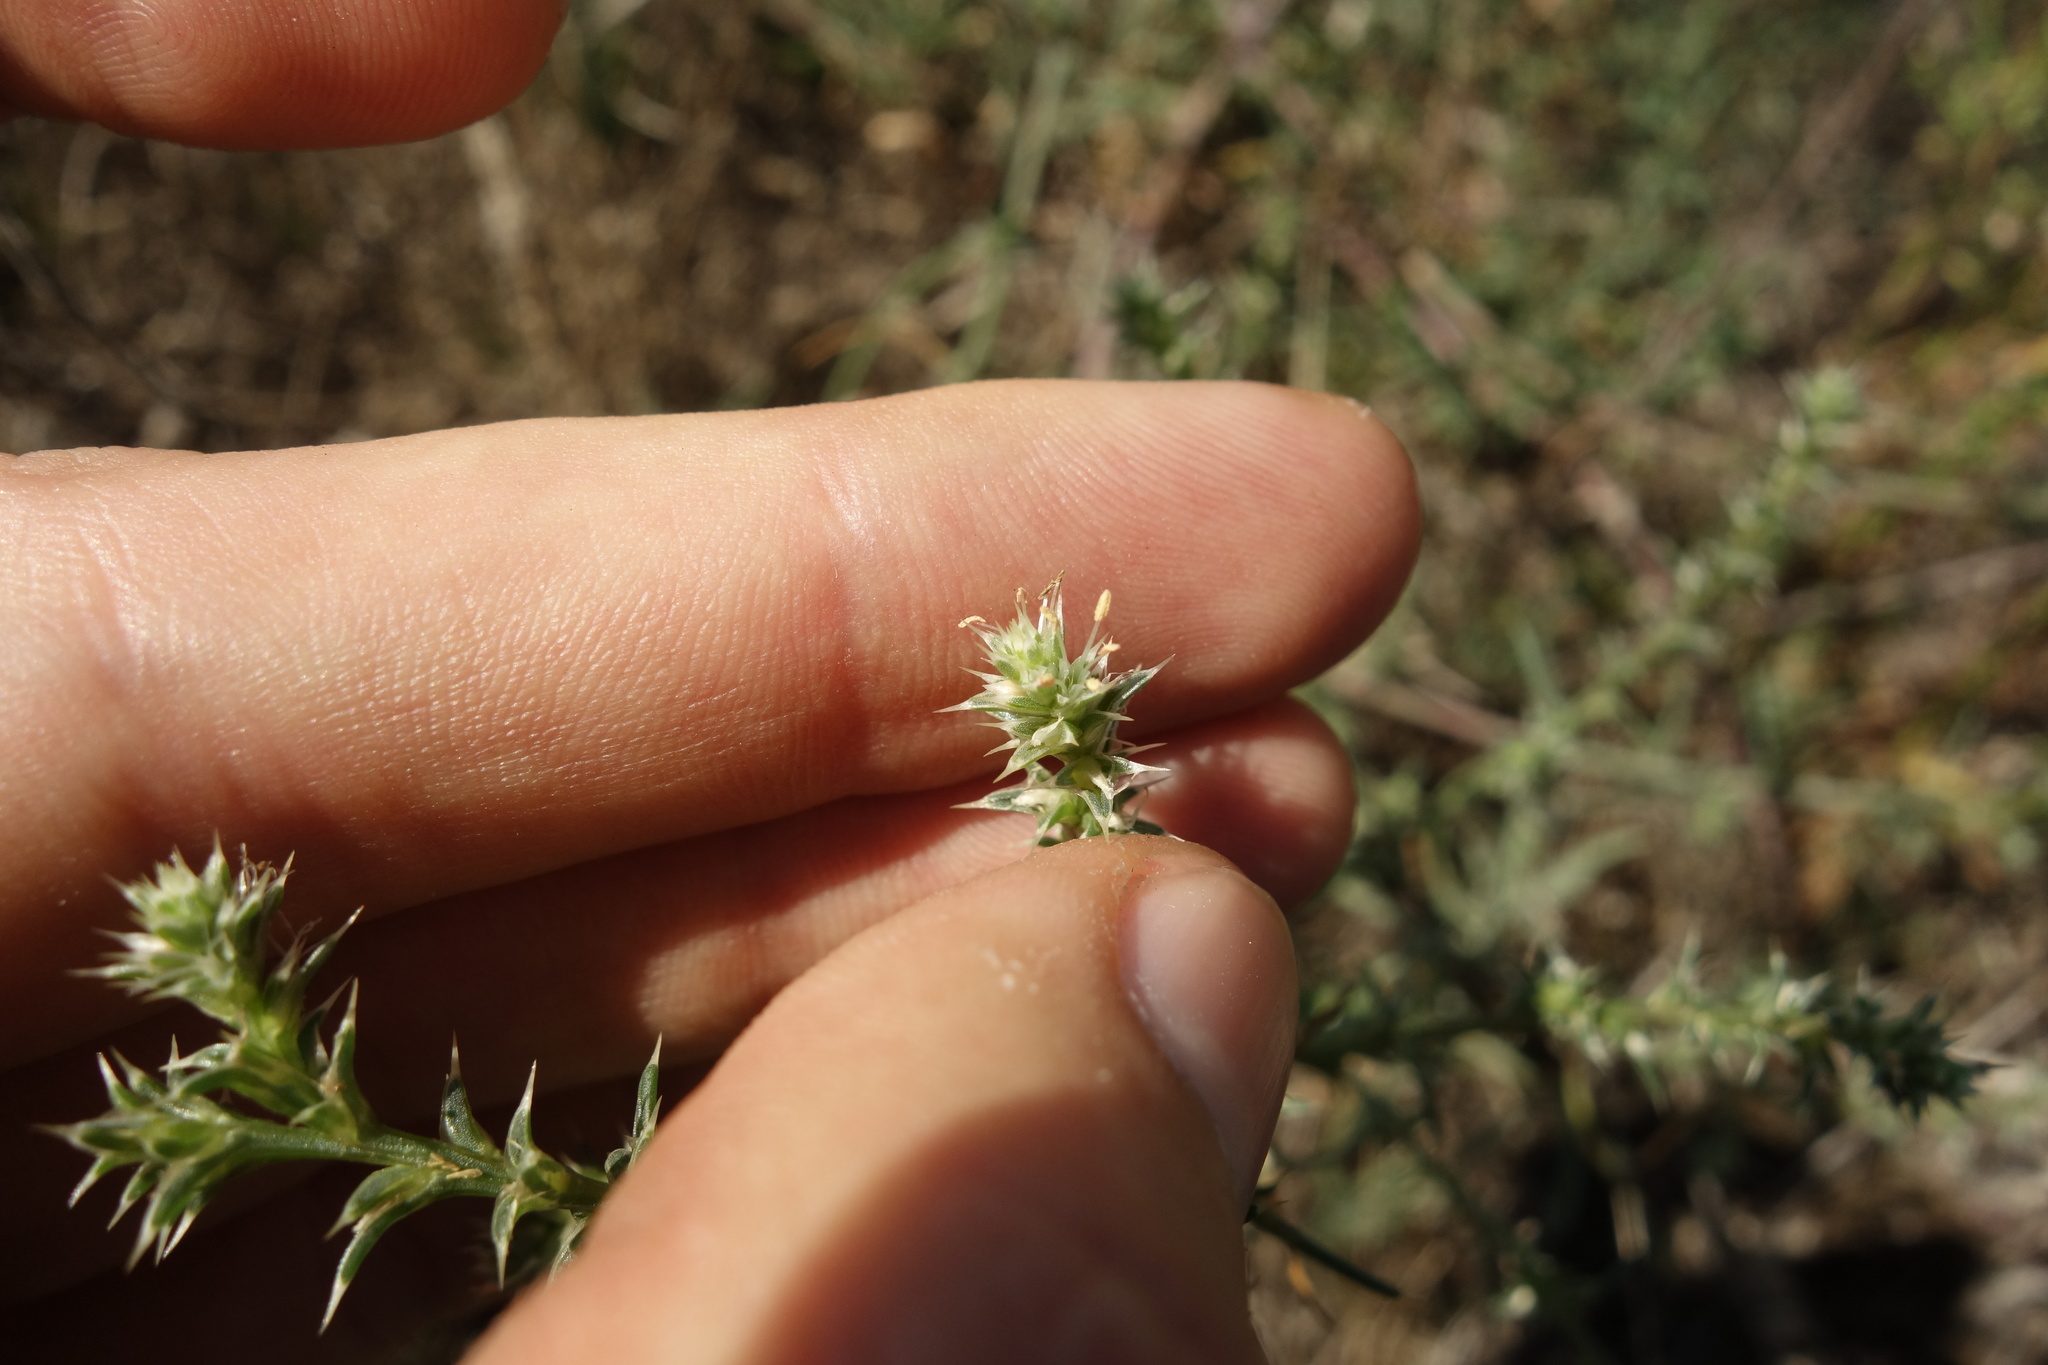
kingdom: Plantae
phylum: Tracheophyta
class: Magnoliopsida
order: Caryophyllales
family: Amaranthaceae
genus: Salsola
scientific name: Salsola tragus
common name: Prickly russian thistle
